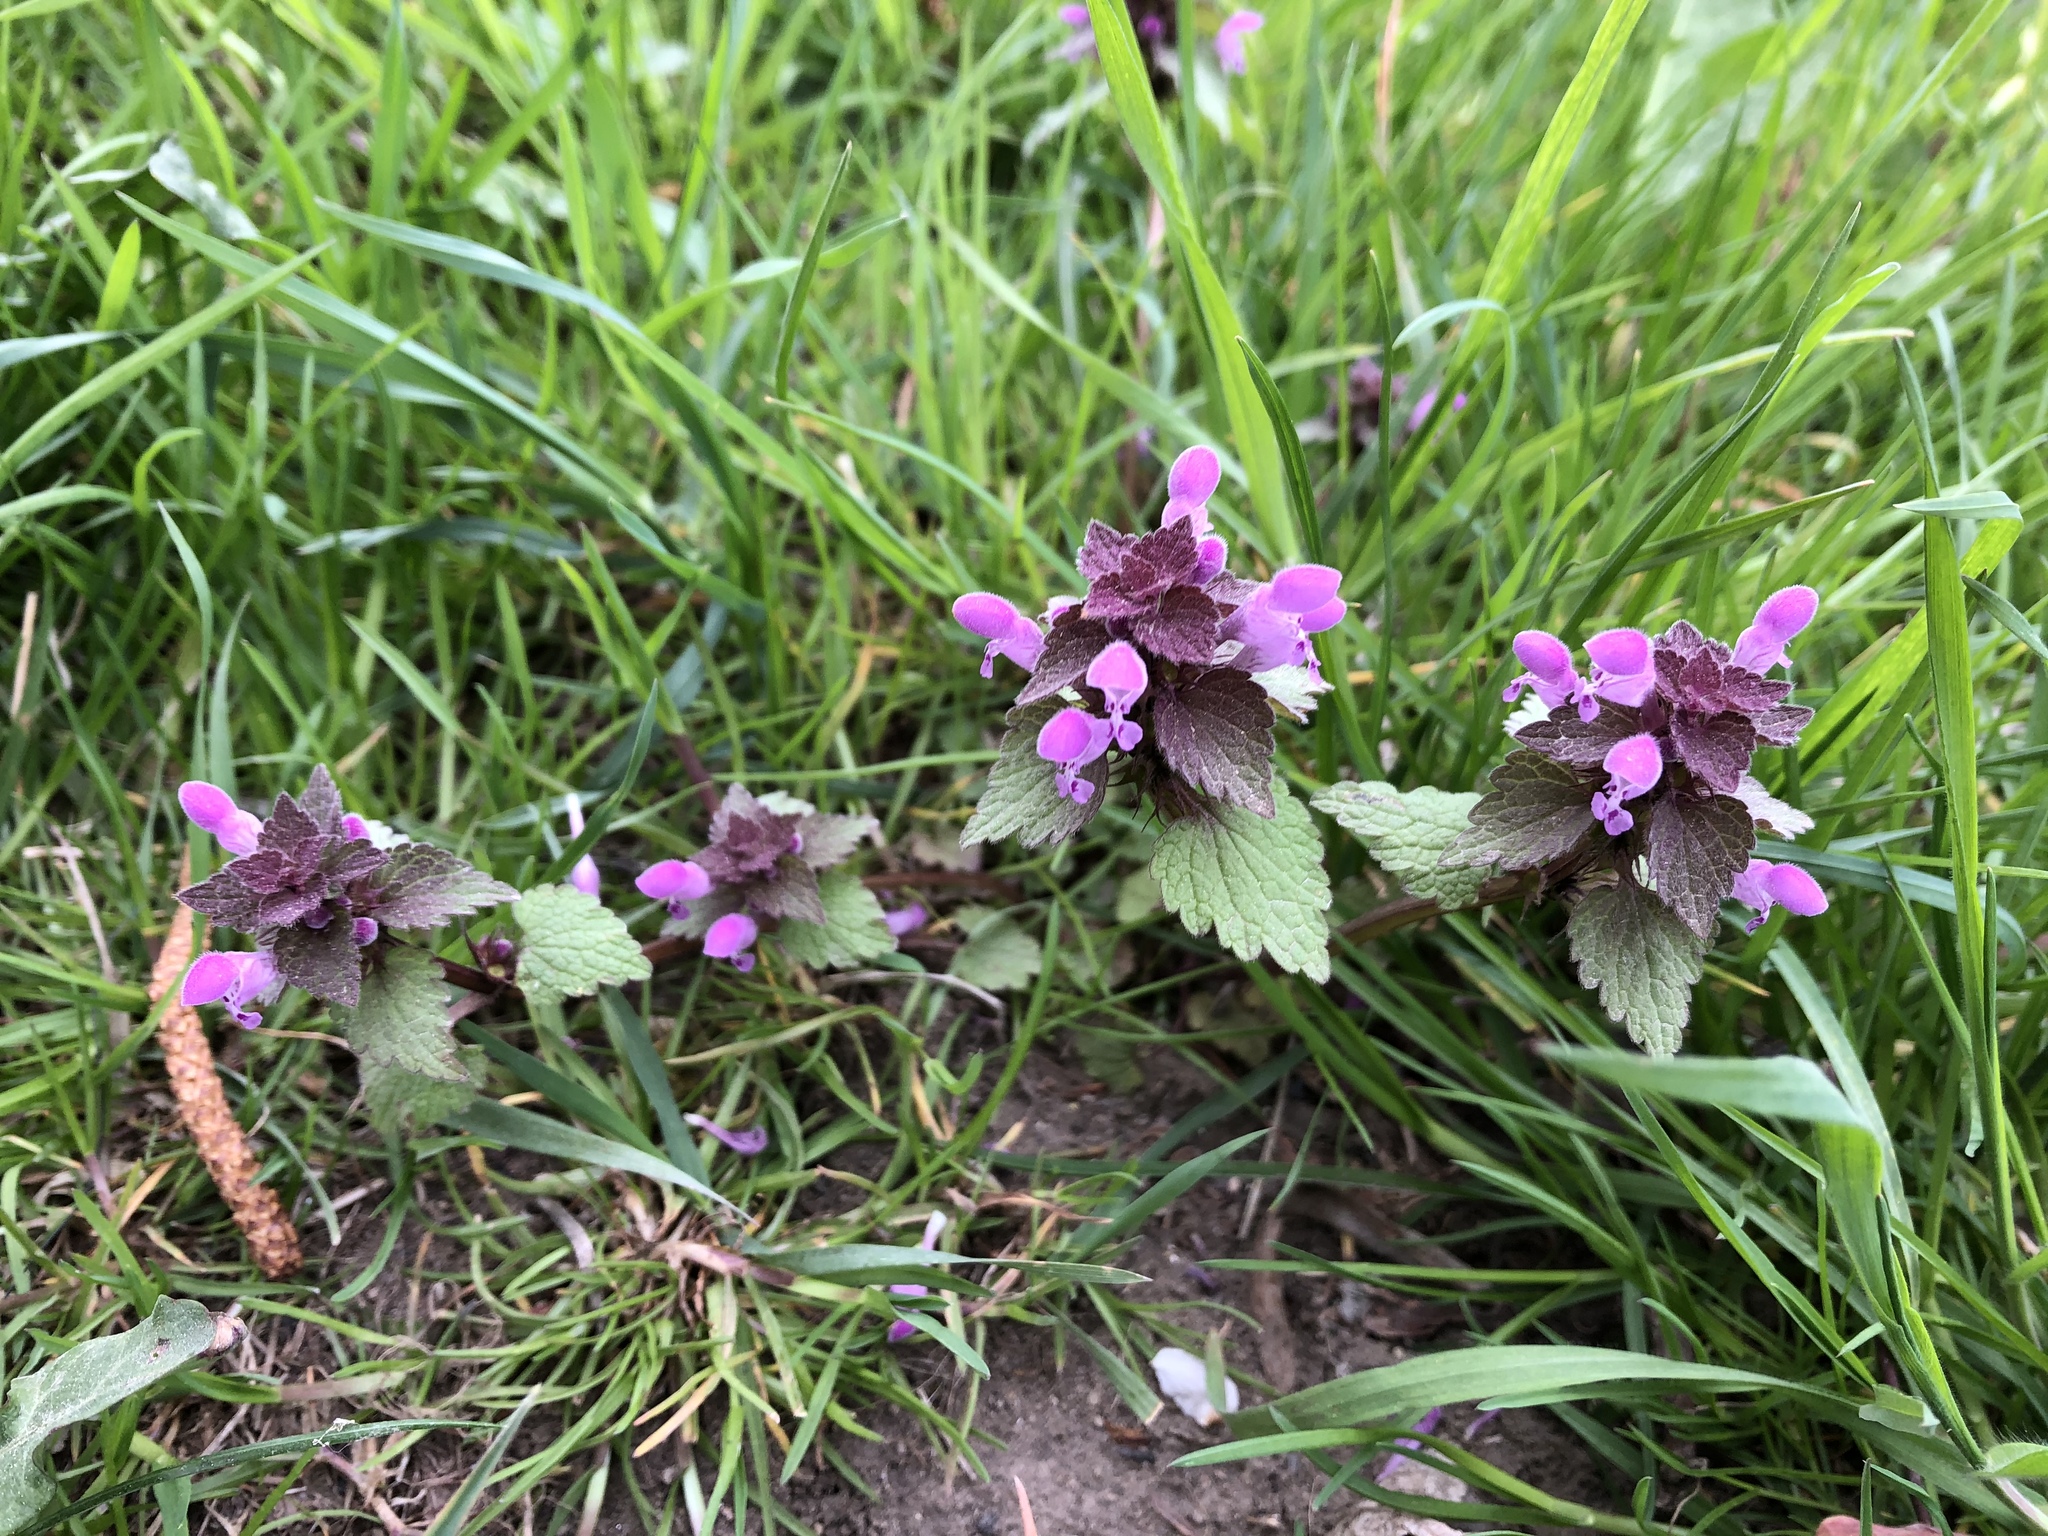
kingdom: Plantae
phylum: Tracheophyta
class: Magnoliopsida
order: Lamiales
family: Lamiaceae
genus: Lamium
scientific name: Lamium purpureum
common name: Red dead-nettle
